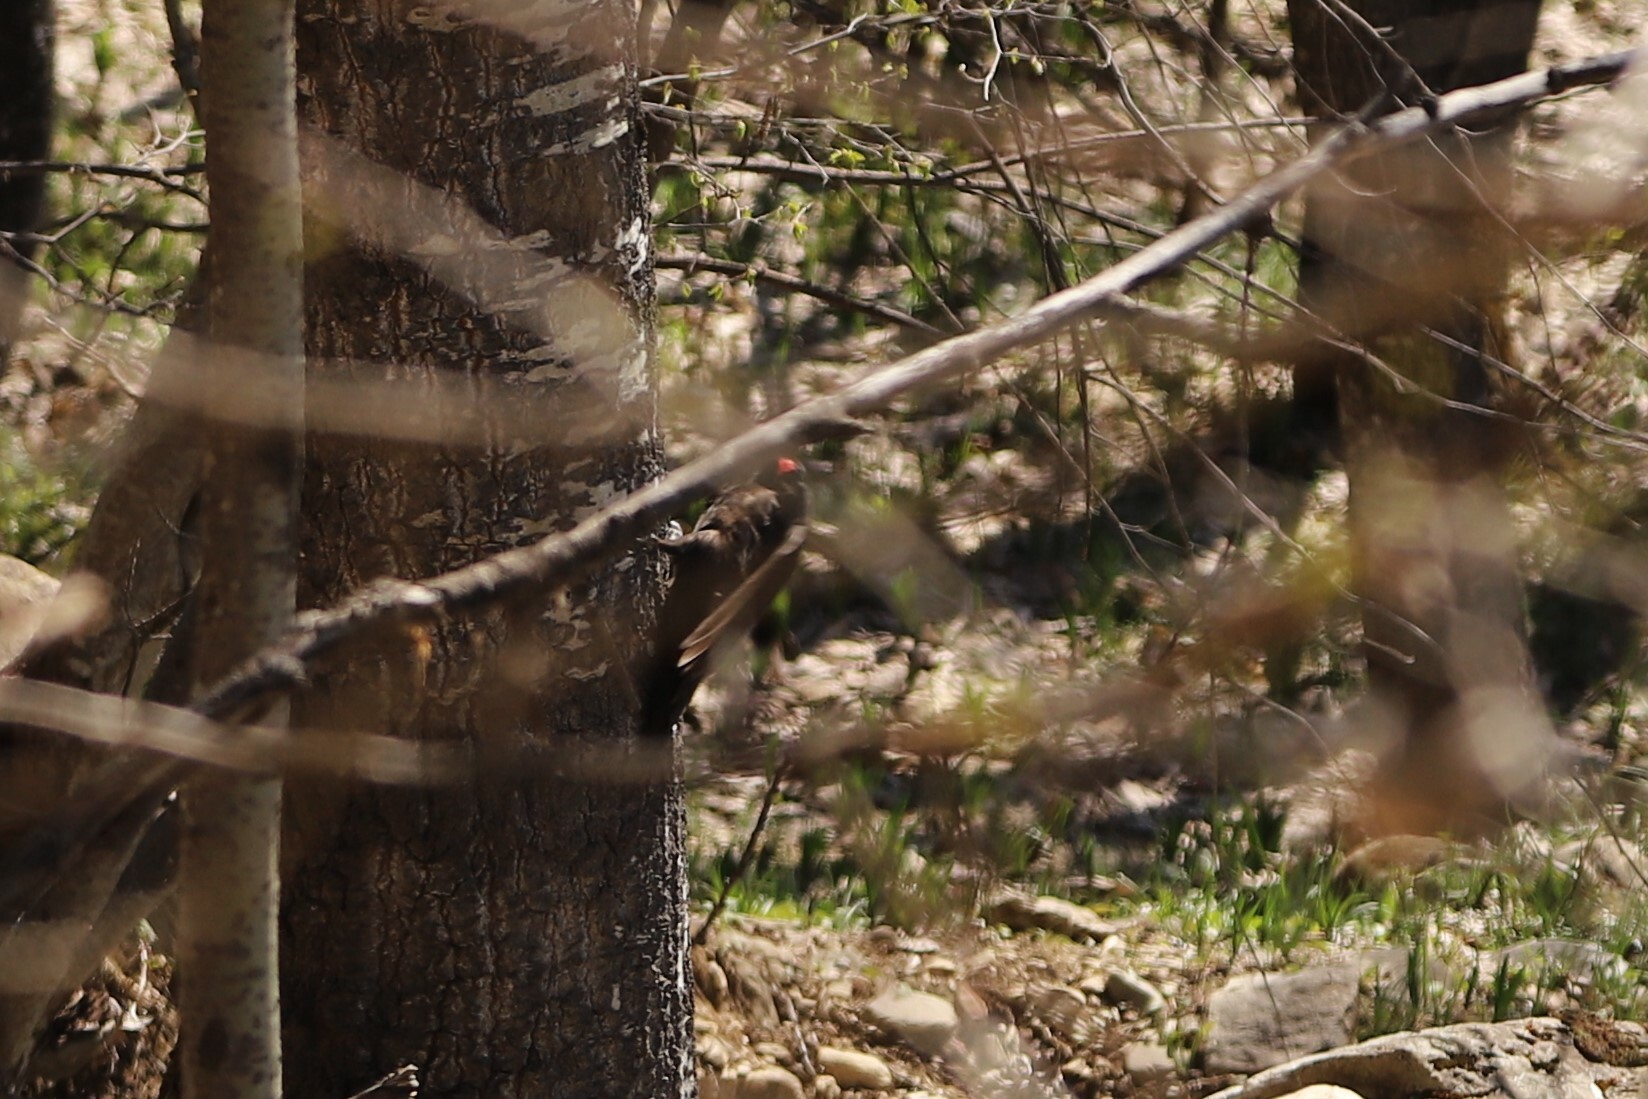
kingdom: Animalia
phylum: Chordata
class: Aves
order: Piciformes
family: Picidae
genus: Dryocopus
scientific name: Dryocopus martius
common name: Black woodpecker
